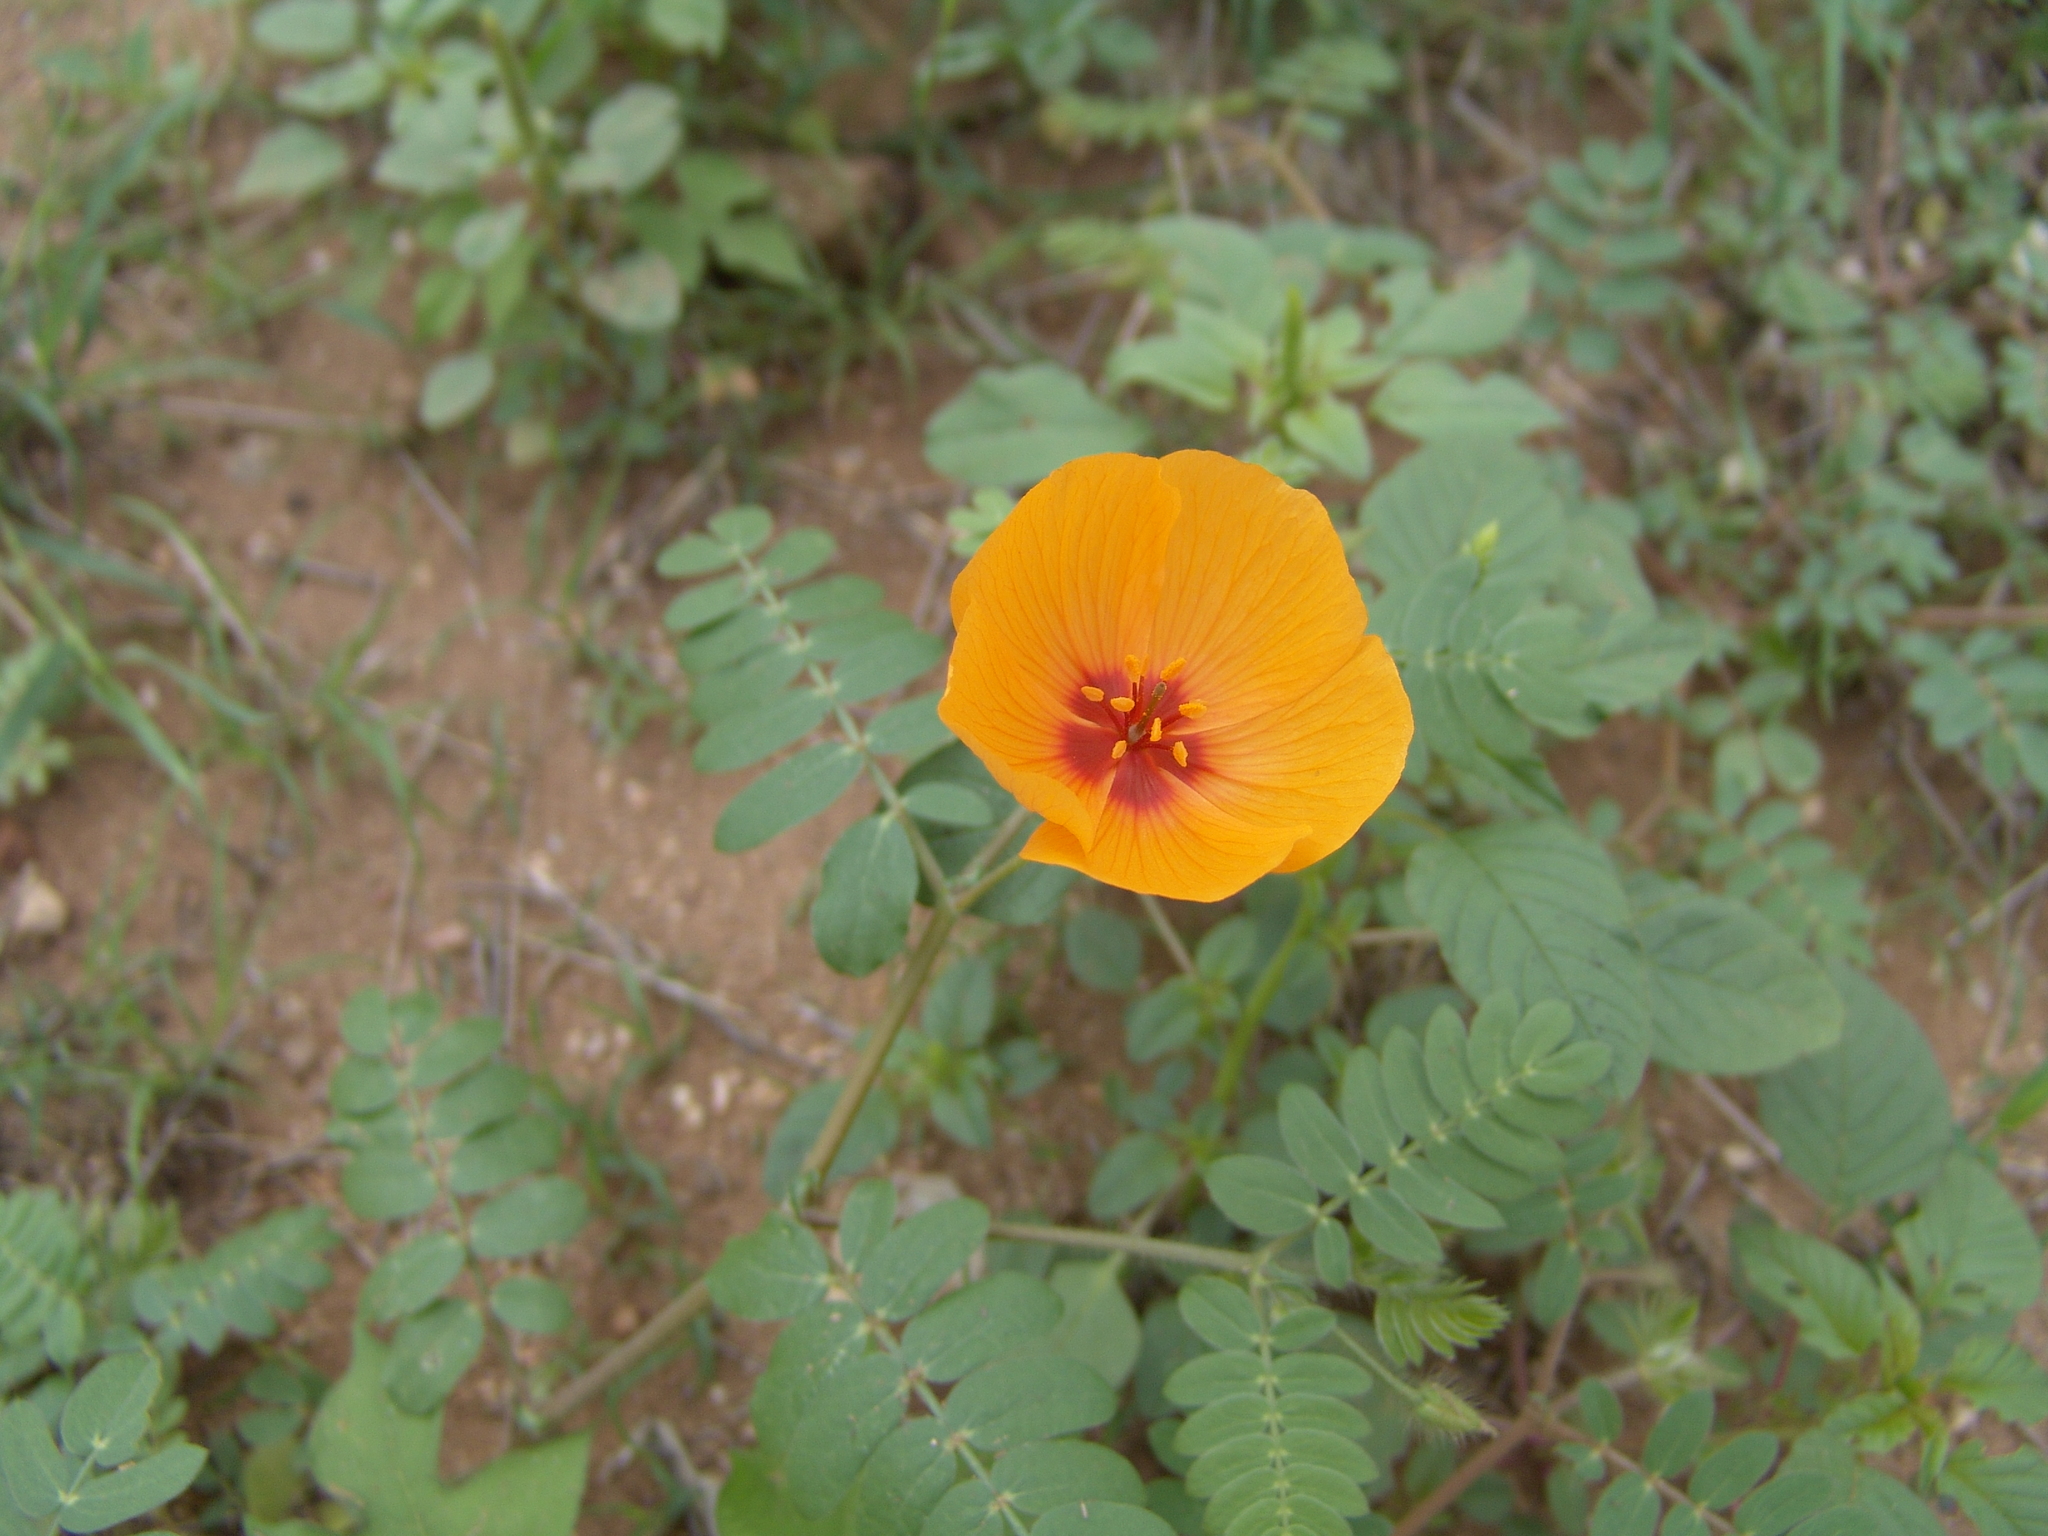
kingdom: Plantae
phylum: Tracheophyta
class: Magnoliopsida
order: Zygophyllales
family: Zygophyllaceae
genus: Kallstroemia
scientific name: Kallstroemia grandiflora
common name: Arizona-poppy
